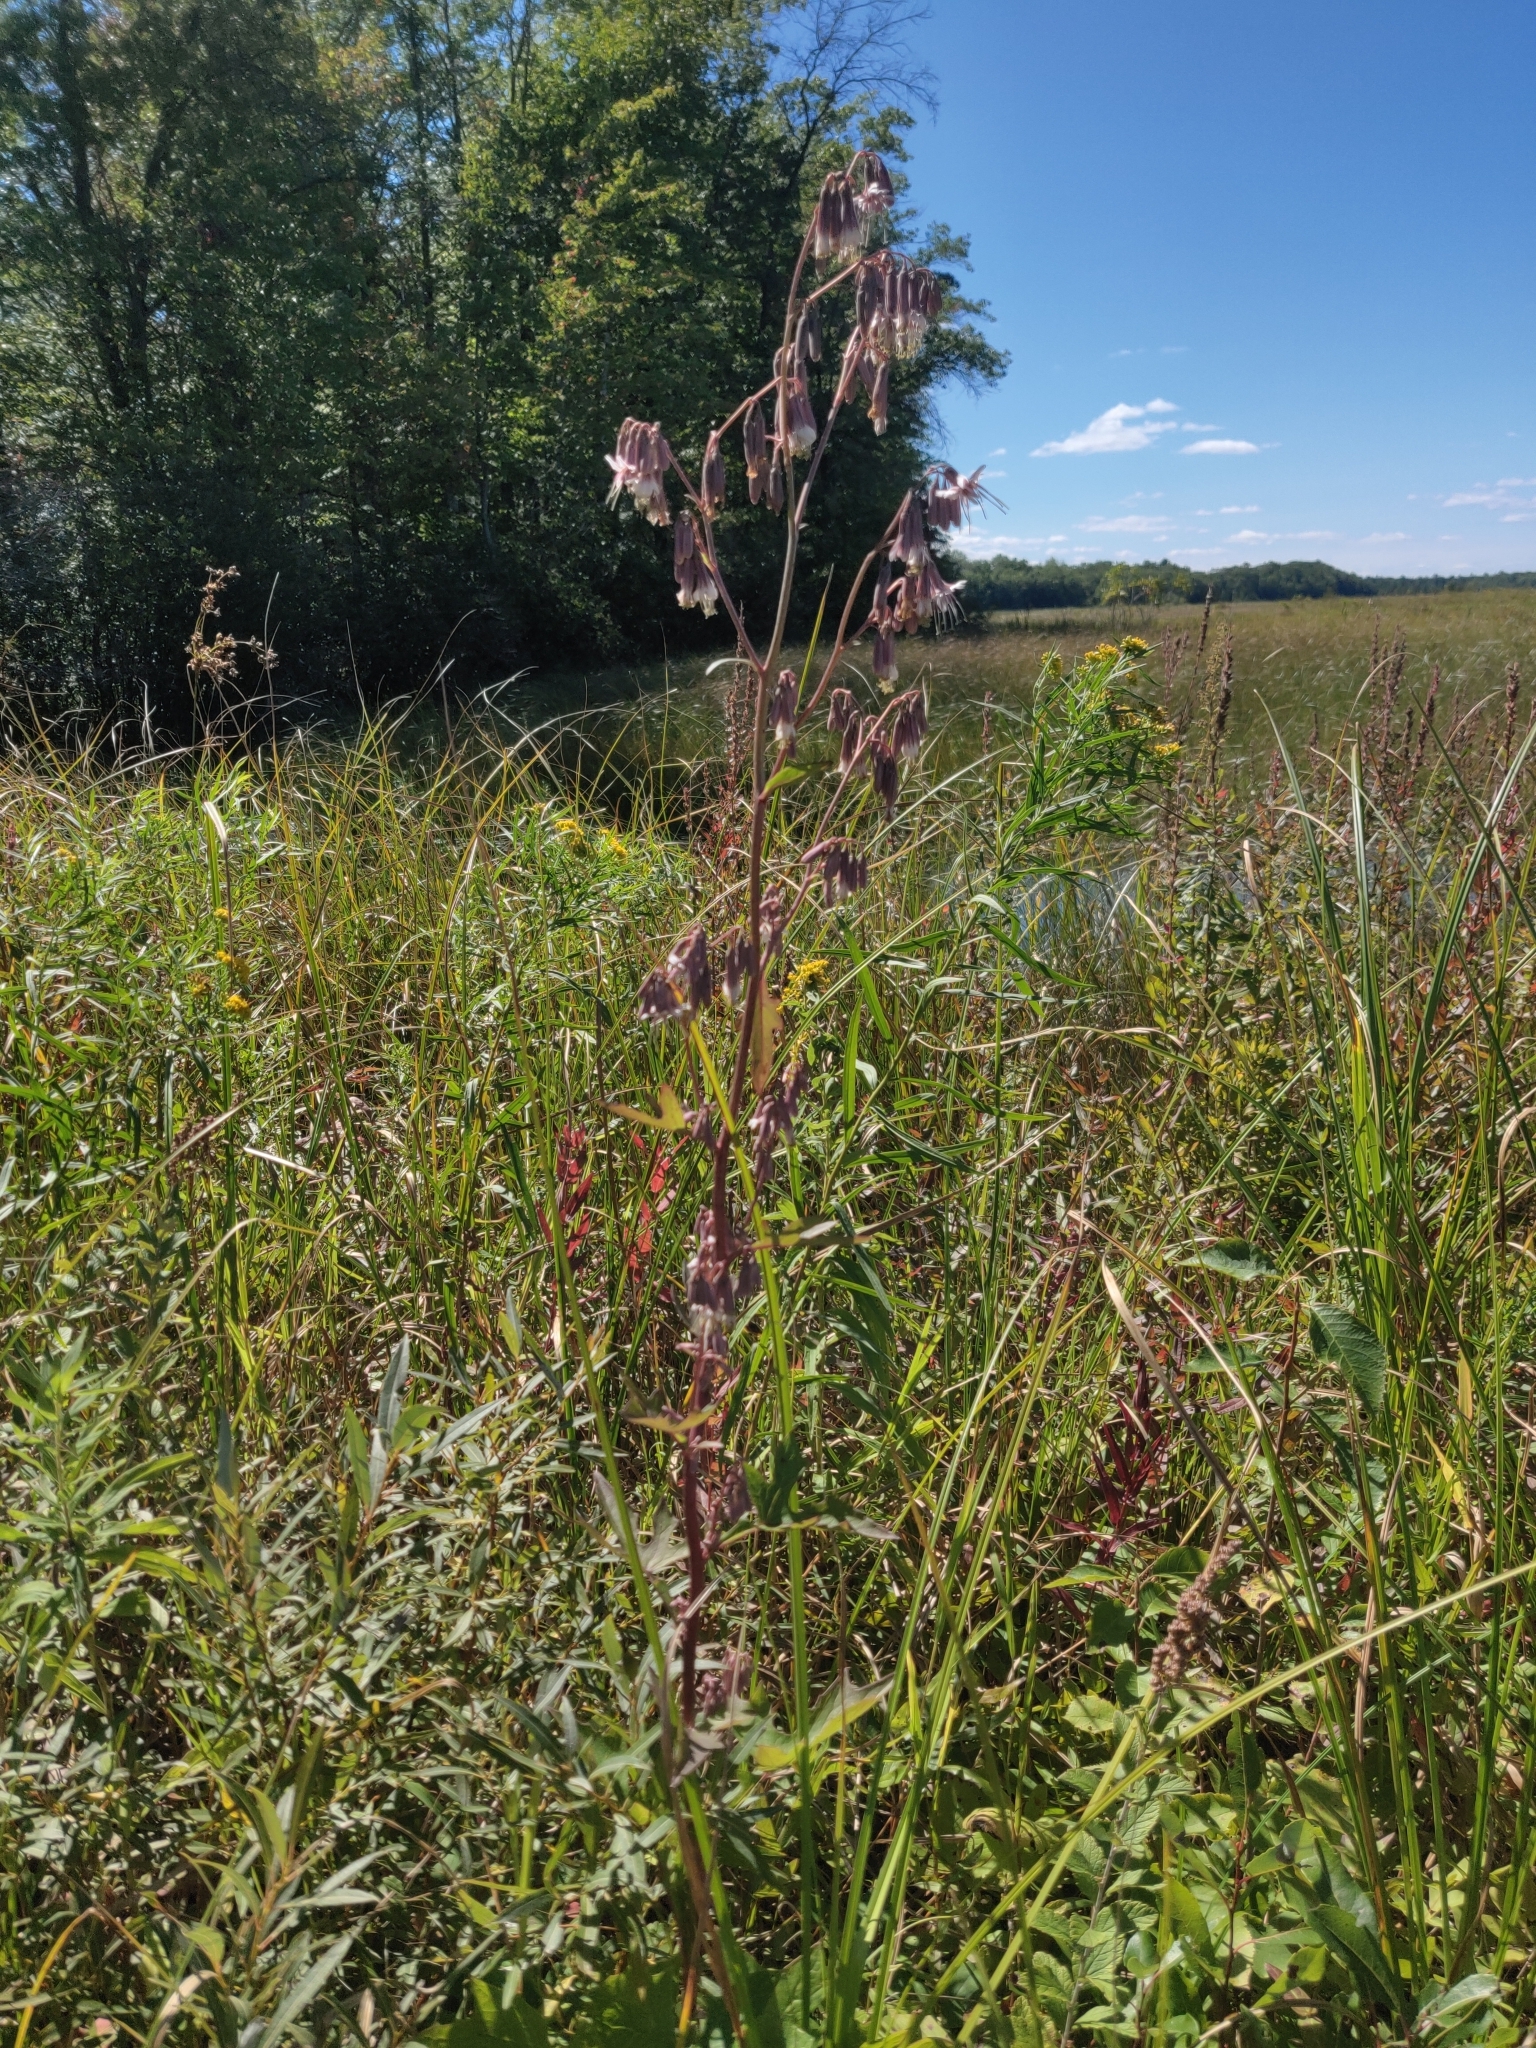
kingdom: Plantae
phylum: Tracheophyta
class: Magnoliopsida
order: Asterales
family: Asteraceae
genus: Nabalus
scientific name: Nabalus albus
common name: White rattlesnakeroot
